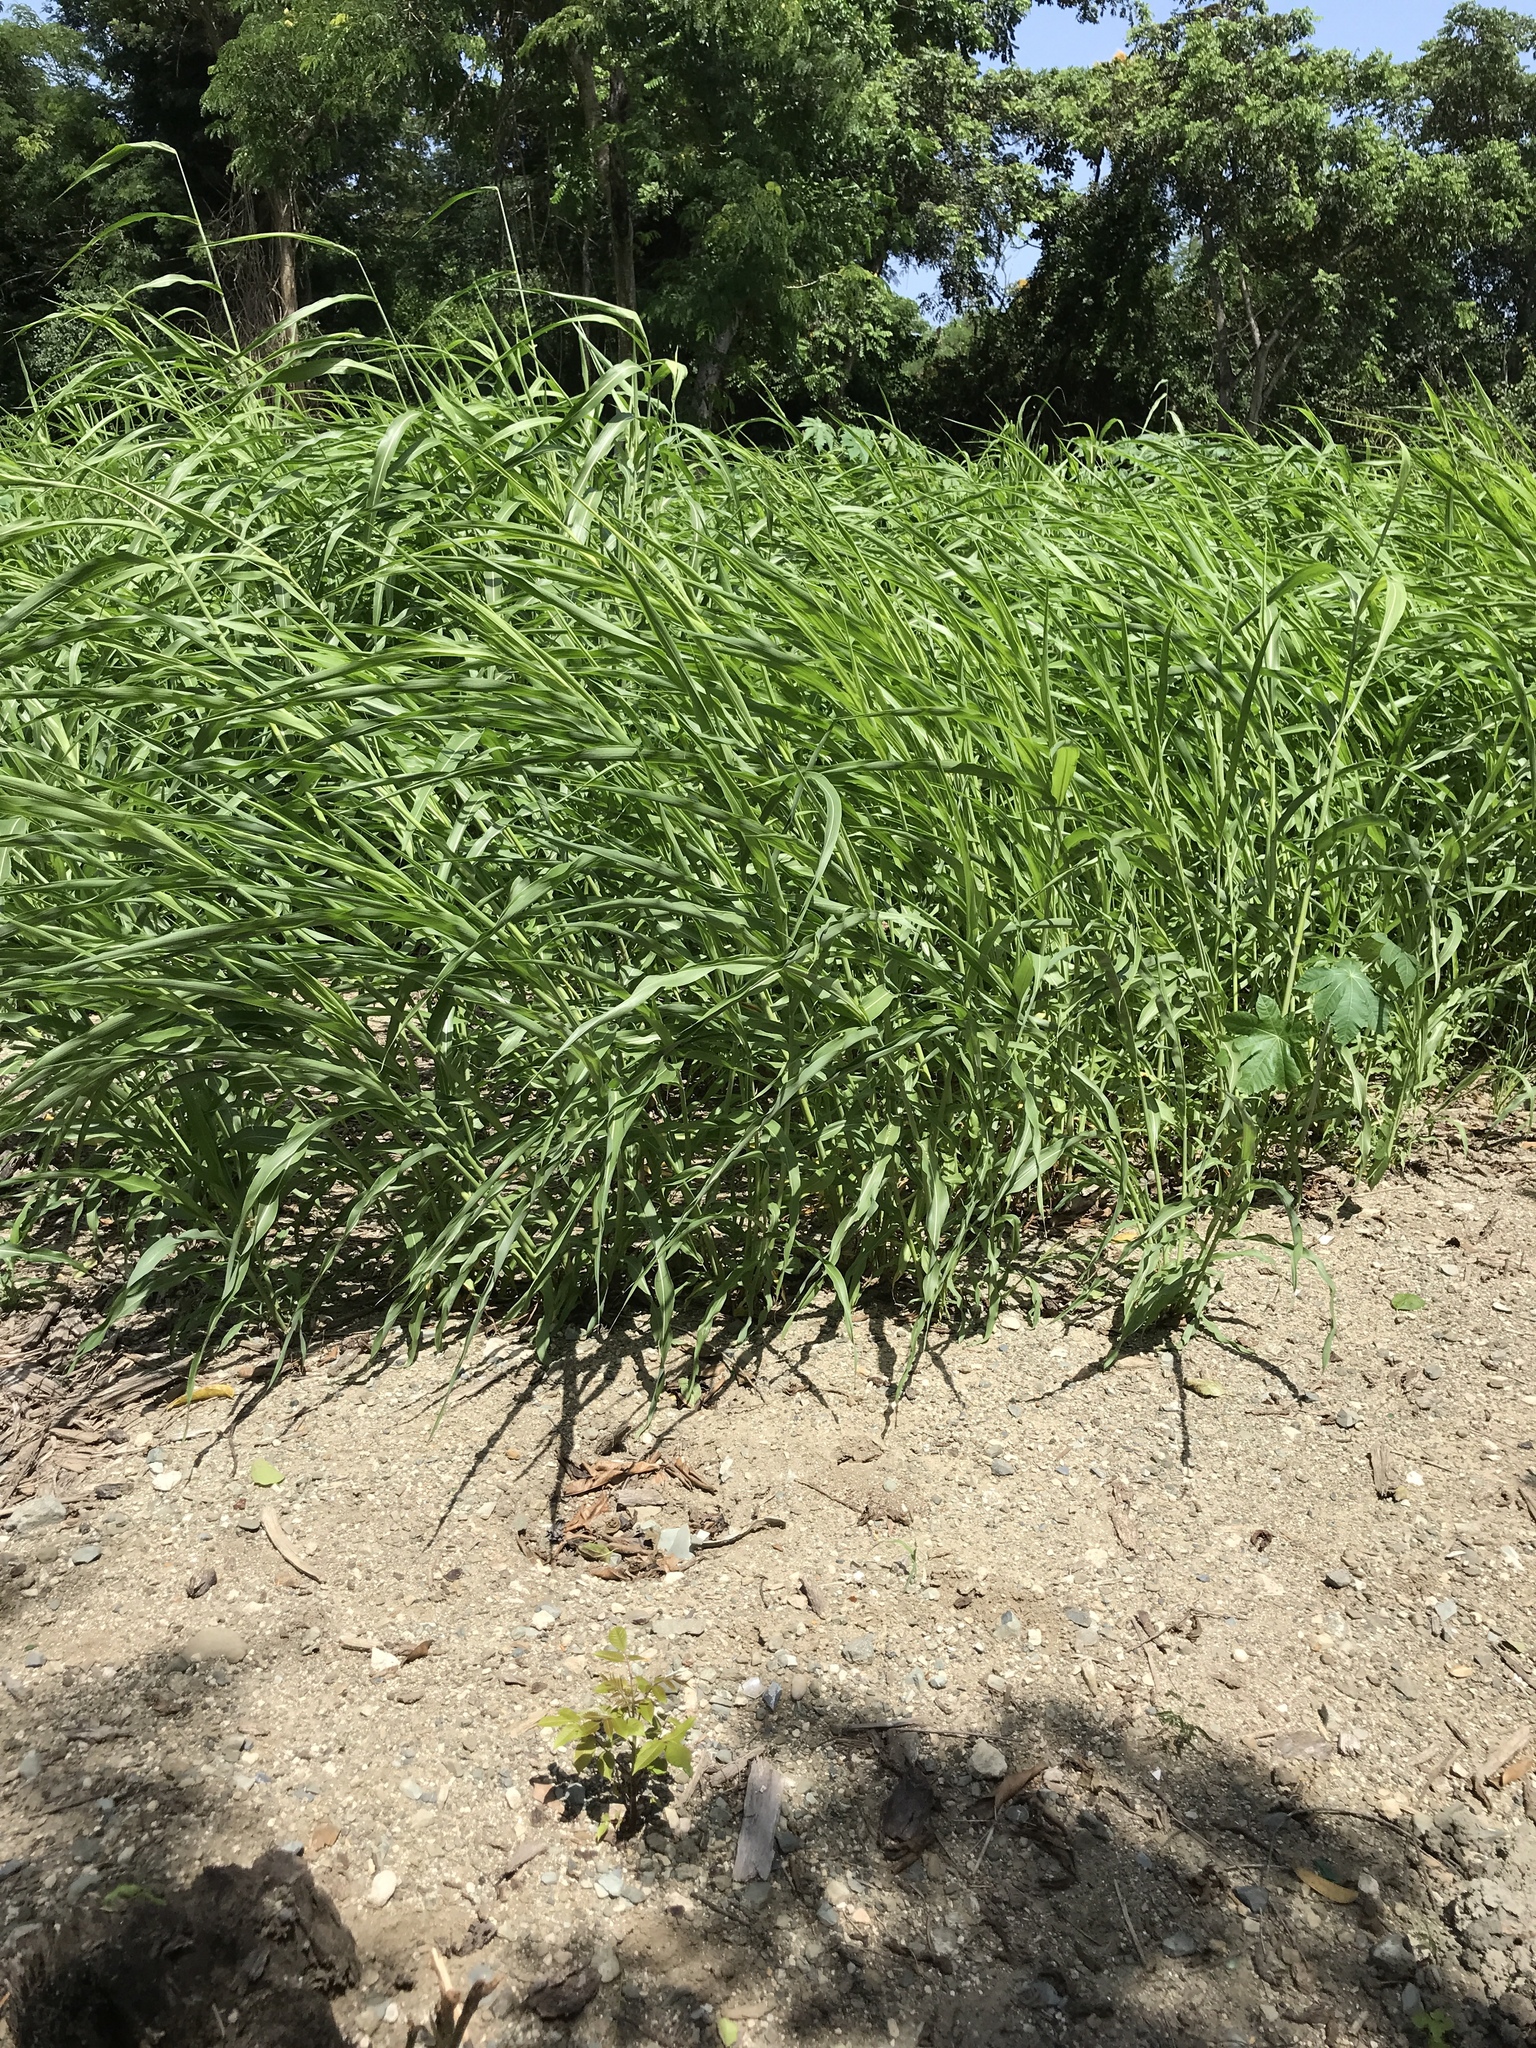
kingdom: Plantae
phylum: Tracheophyta
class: Liliopsida
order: Poales
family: Poaceae
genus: Megathyrsus
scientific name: Megathyrsus maximus
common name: Guineagrass
